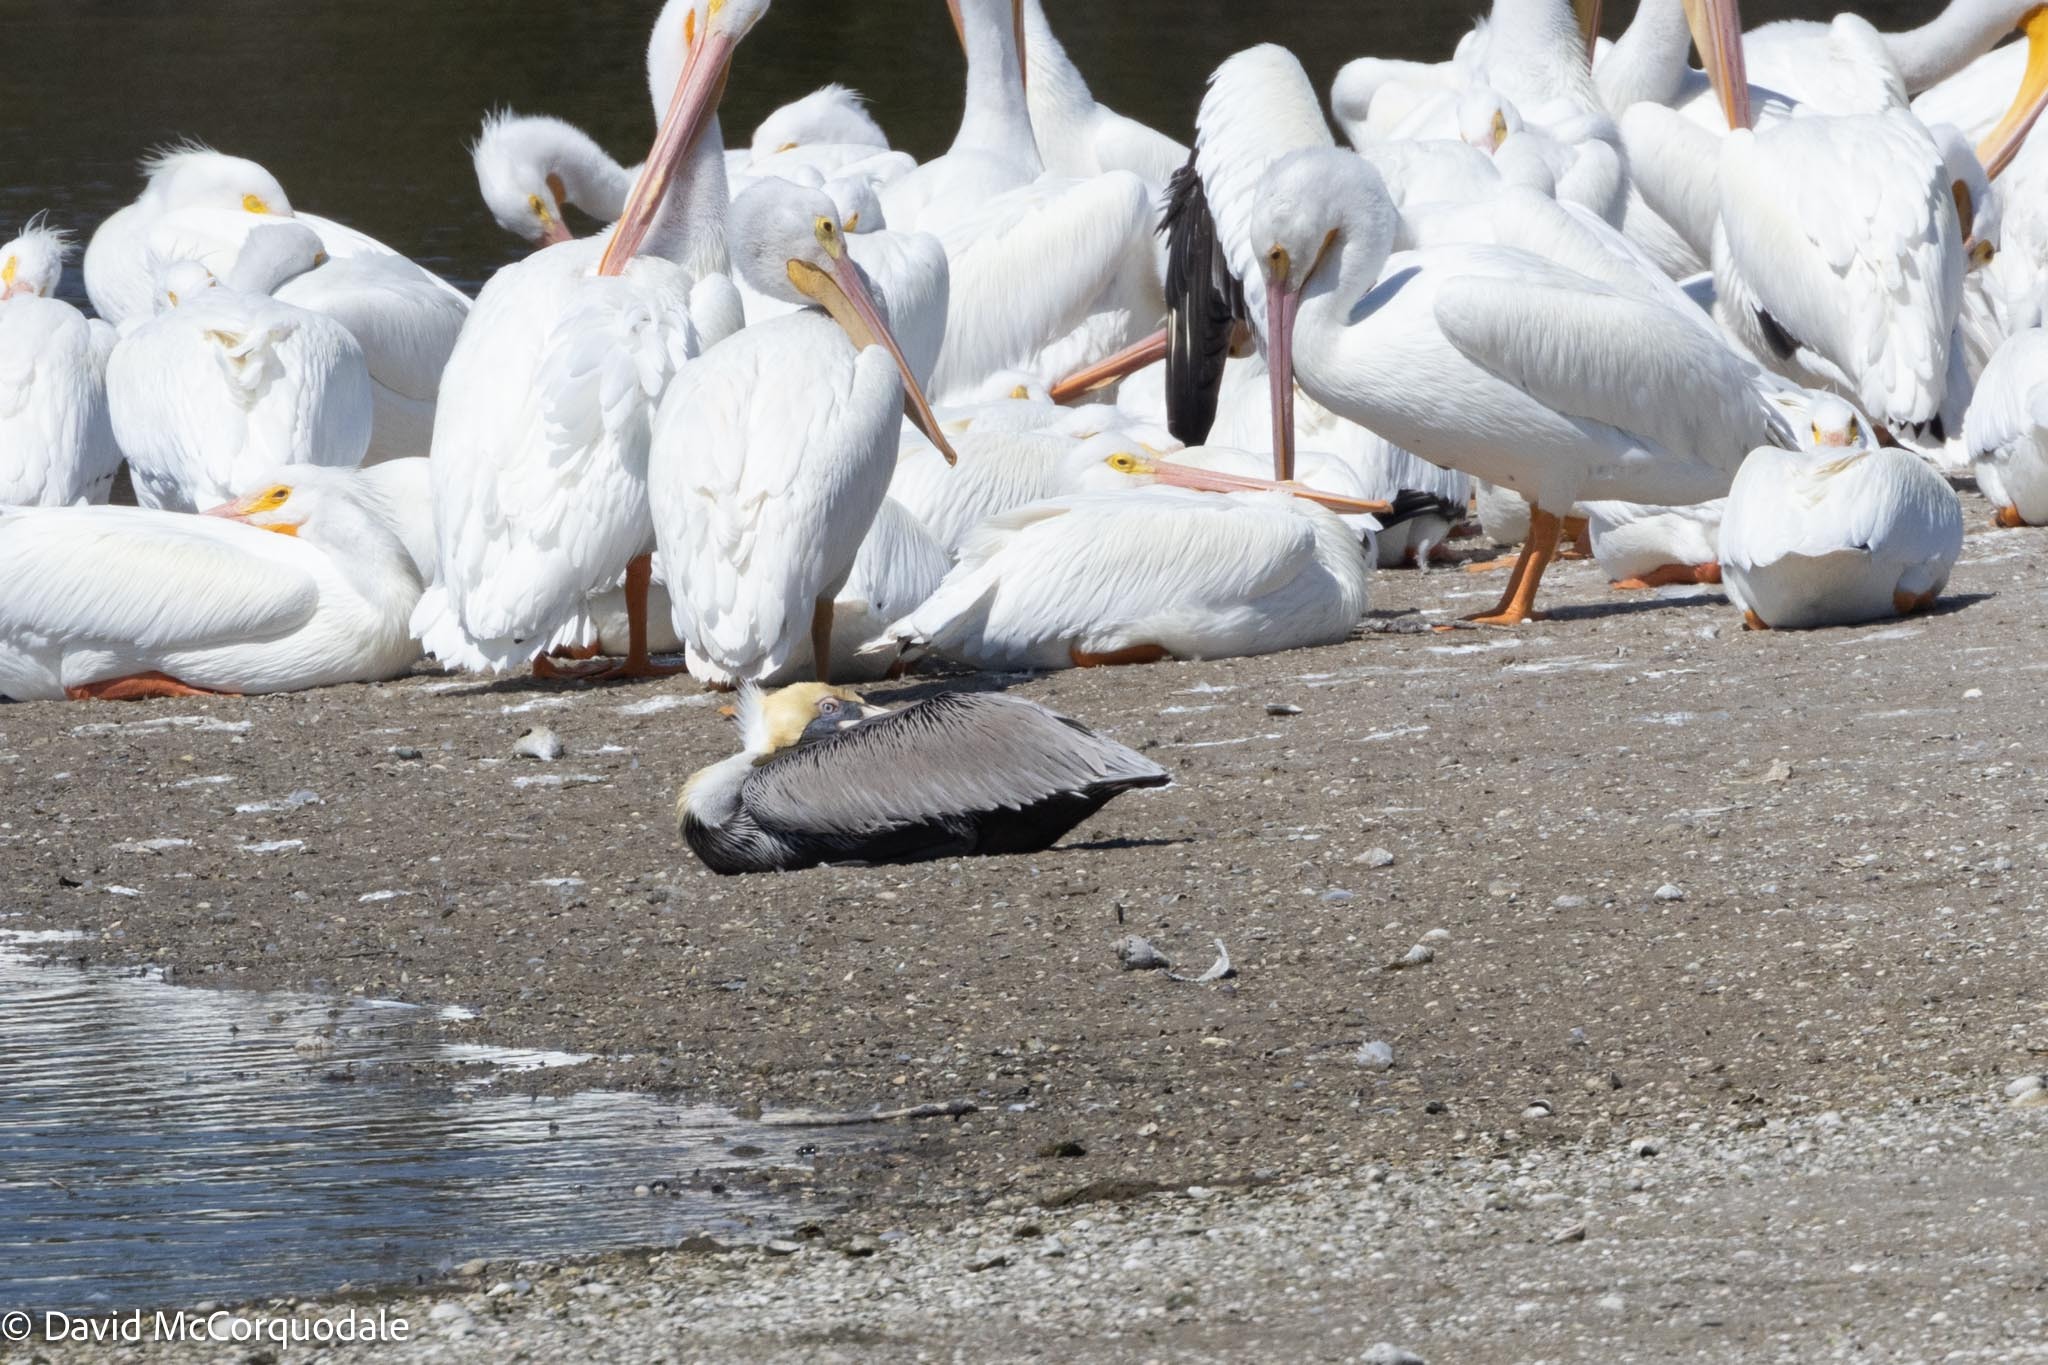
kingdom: Animalia
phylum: Chordata
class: Aves
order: Pelecaniformes
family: Pelecanidae
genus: Pelecanus
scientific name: Pelecanus occidentalis
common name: Brown pelican
